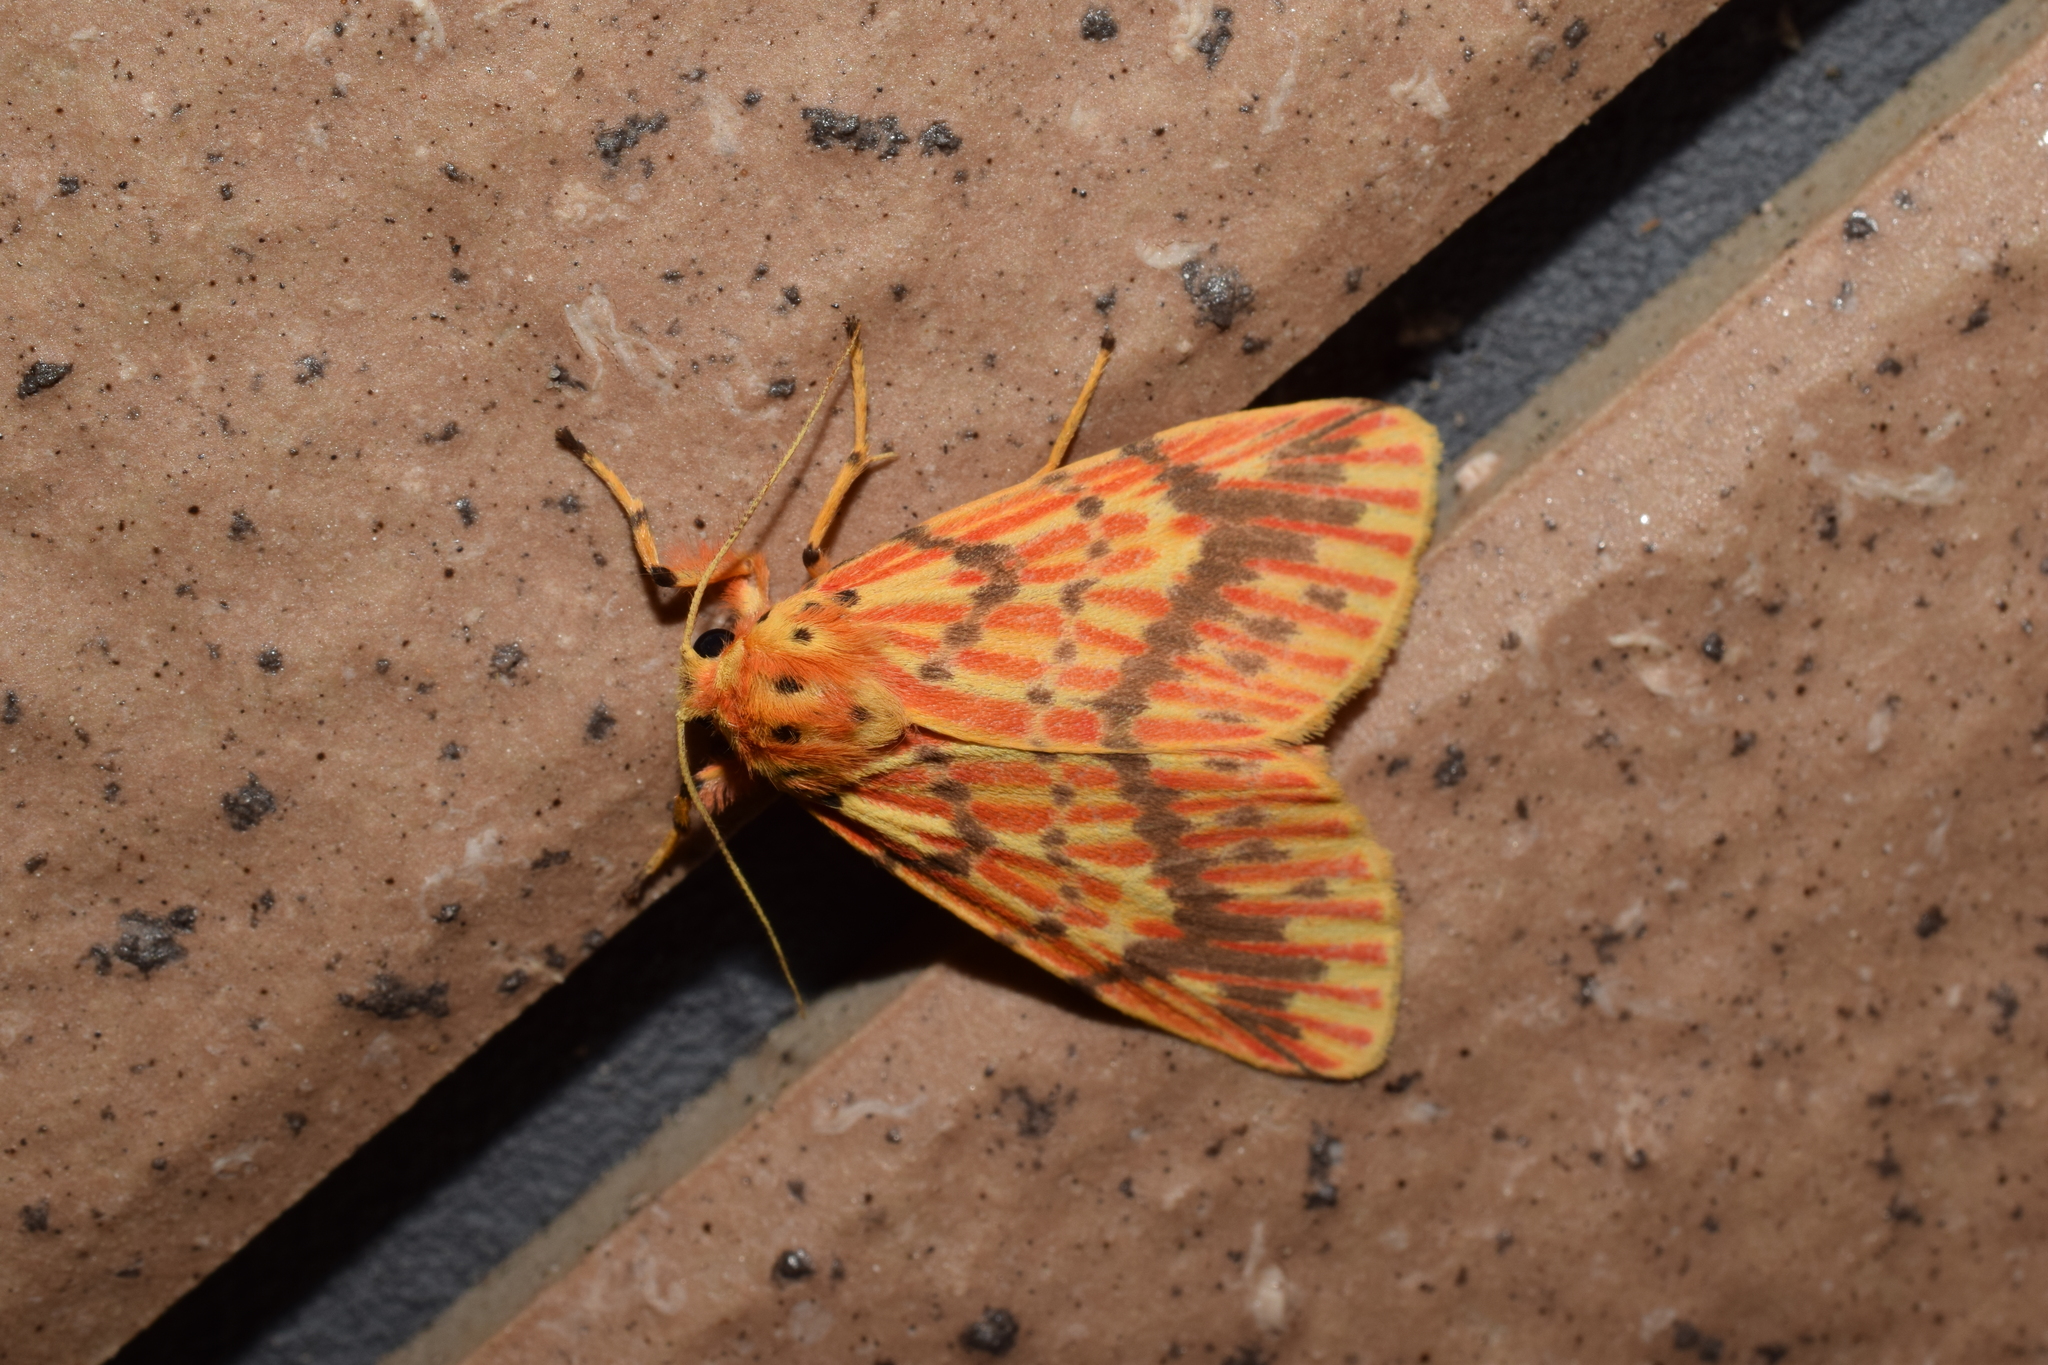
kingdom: Animalia
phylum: Arthropoda
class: Insecta
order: Lepidoptera
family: Erebidae
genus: Barsine
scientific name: Barsine striata
